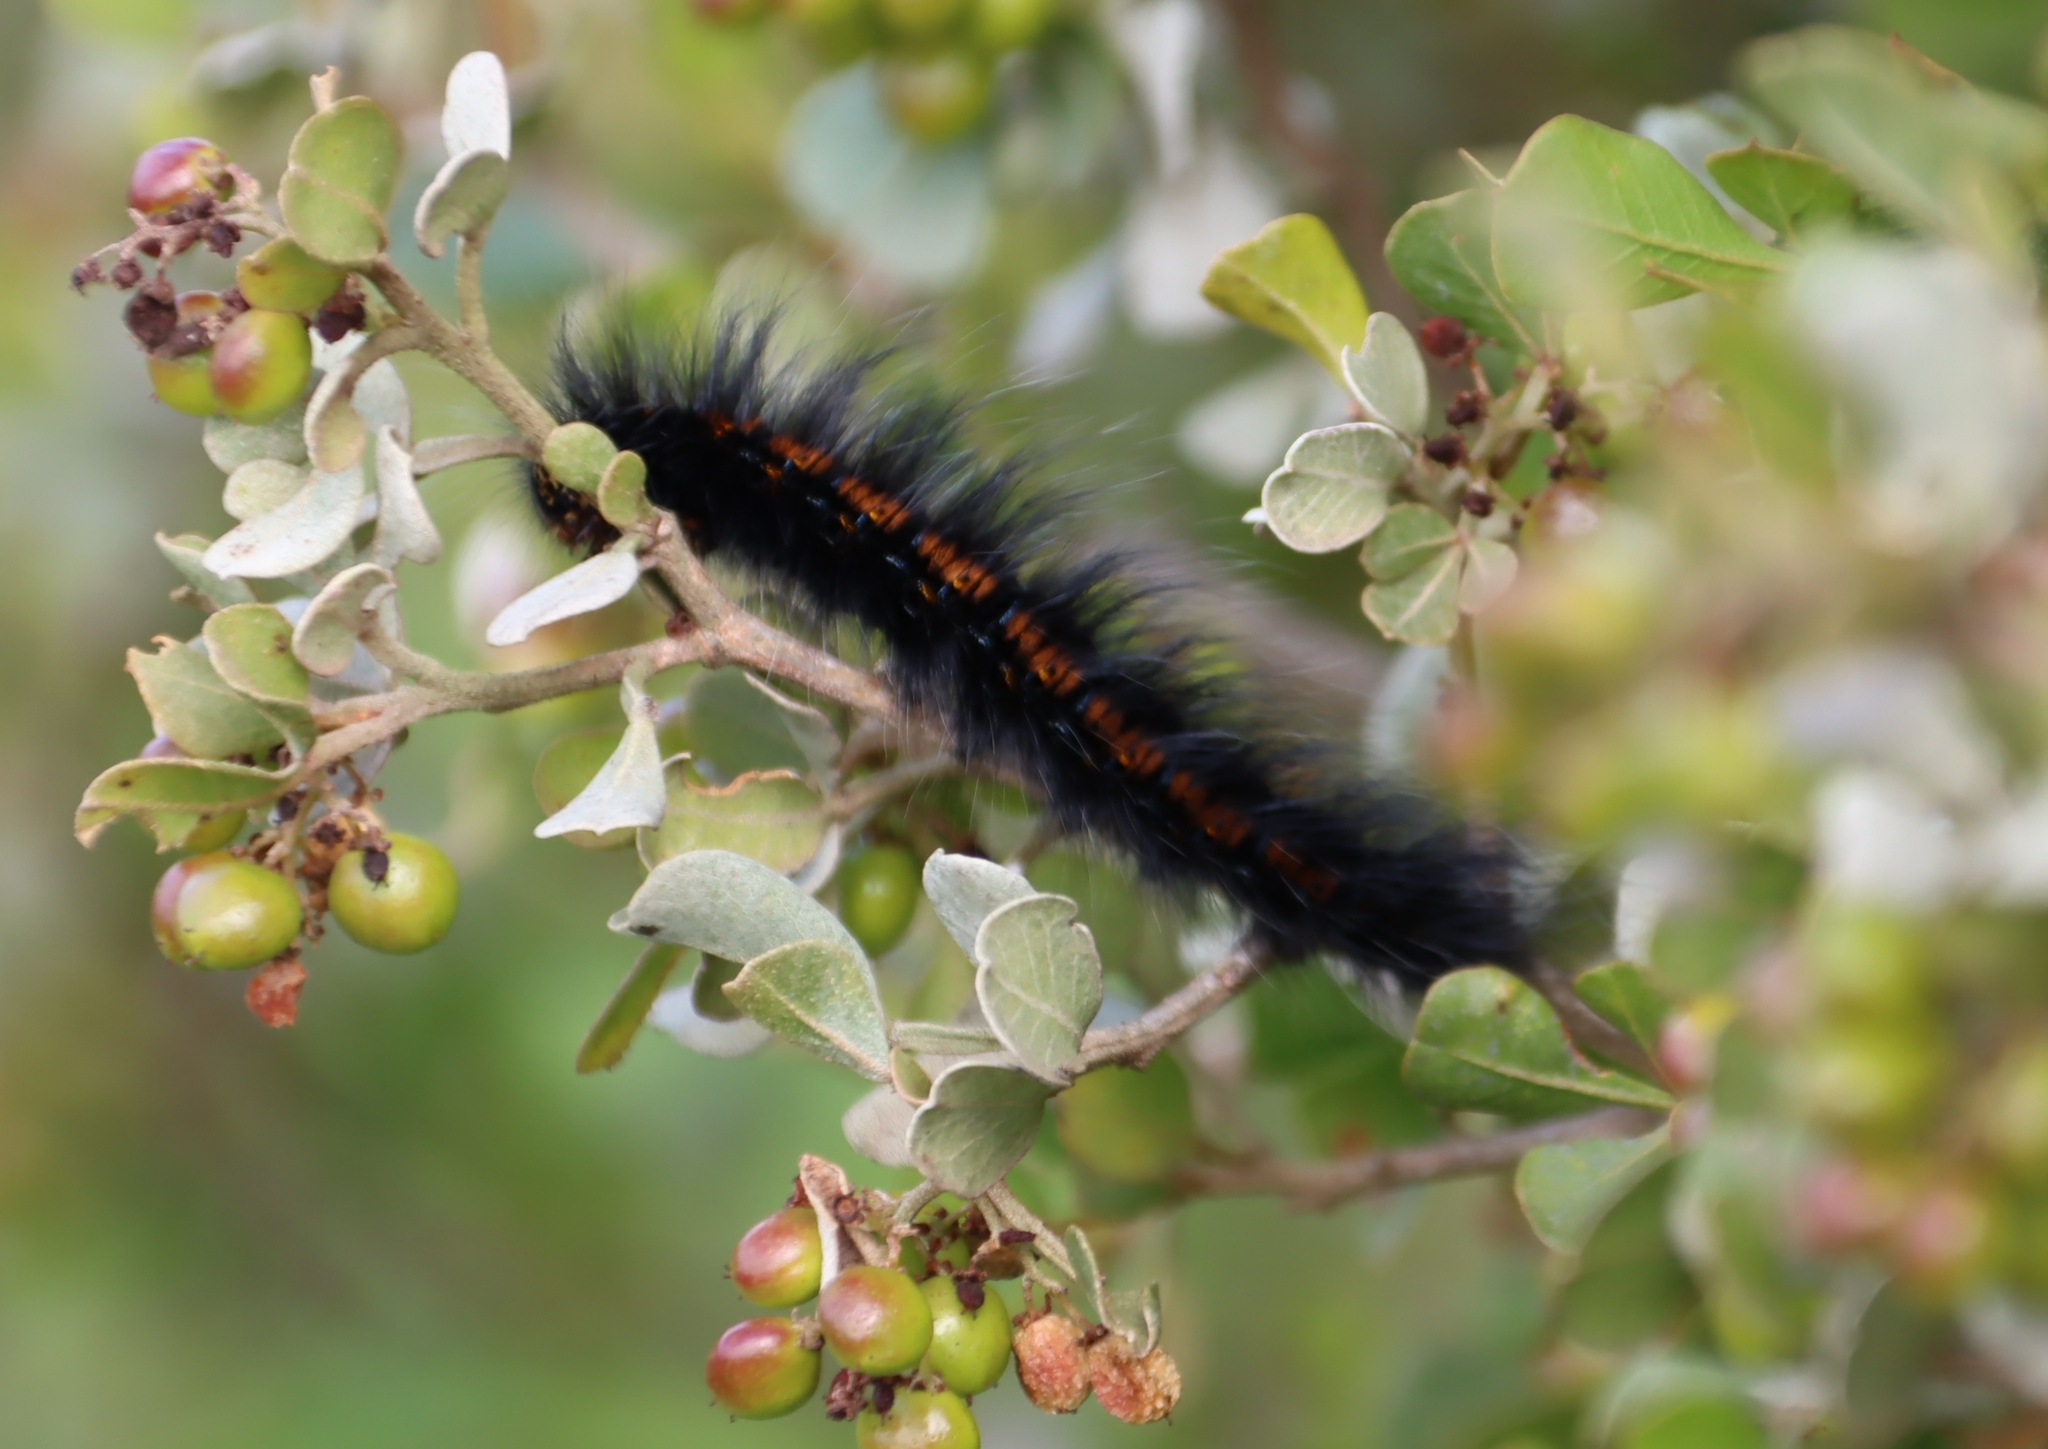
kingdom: Animalia
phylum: Arthropoda
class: Insecta
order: Lepidoptera
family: Lasiocampidae
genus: Mesocelis
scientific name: Mesocelis monticola
